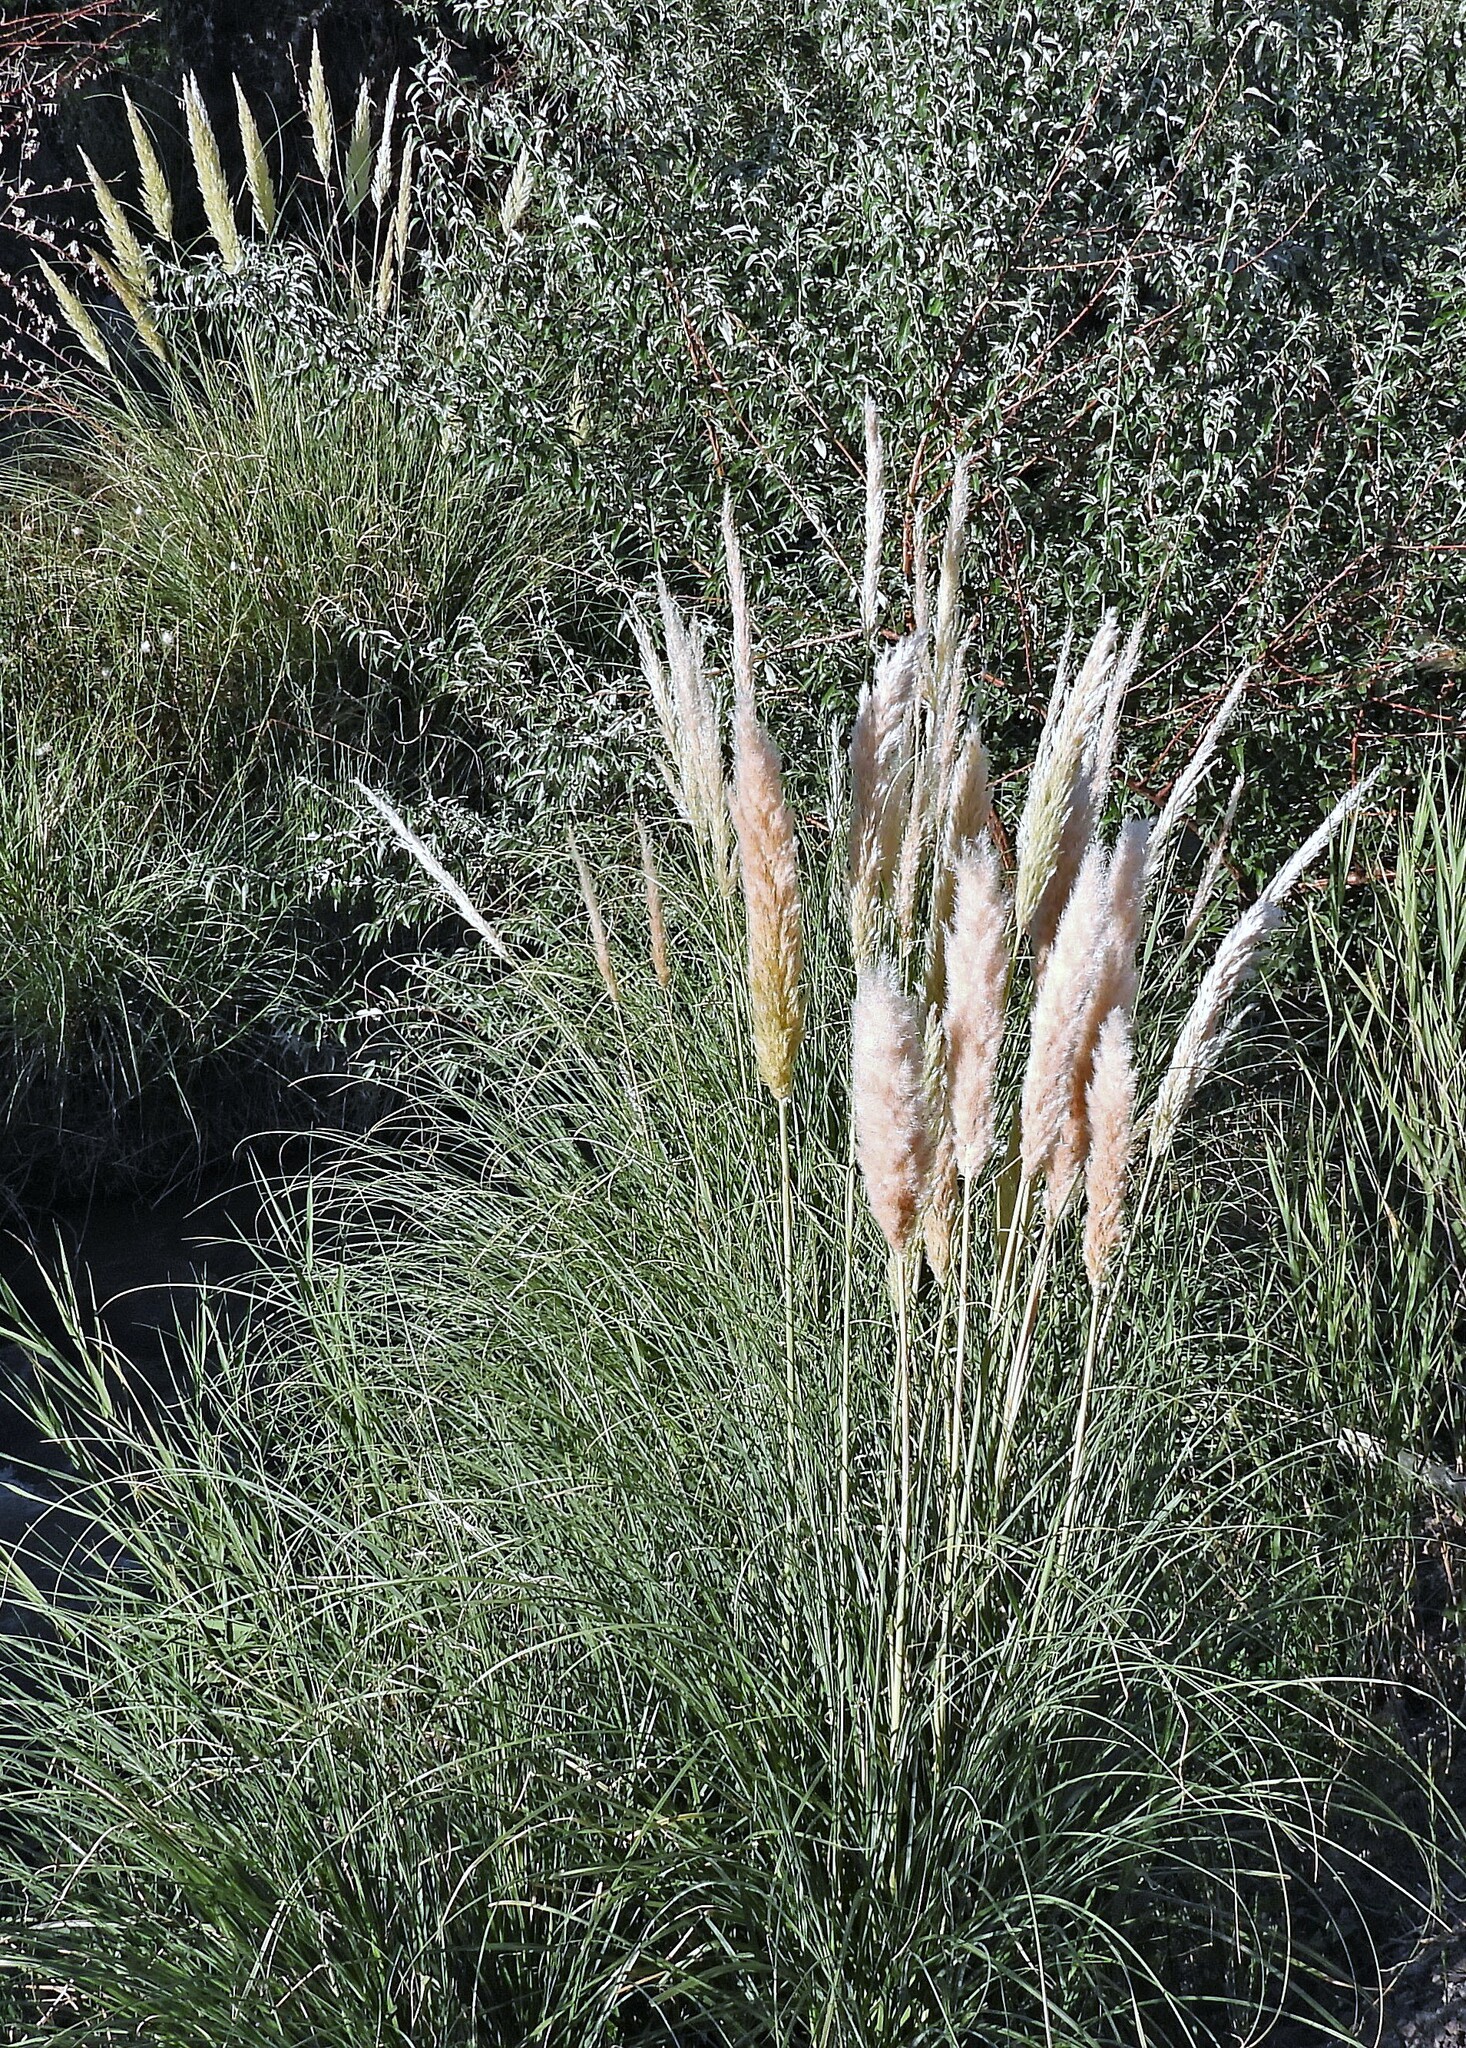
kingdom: Plantae
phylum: Tracheophyta
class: Liliopsida
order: Poales
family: Poaceae
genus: Cortaderia
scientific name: Cortaderia selloana
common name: Uruguayan pampas grass
